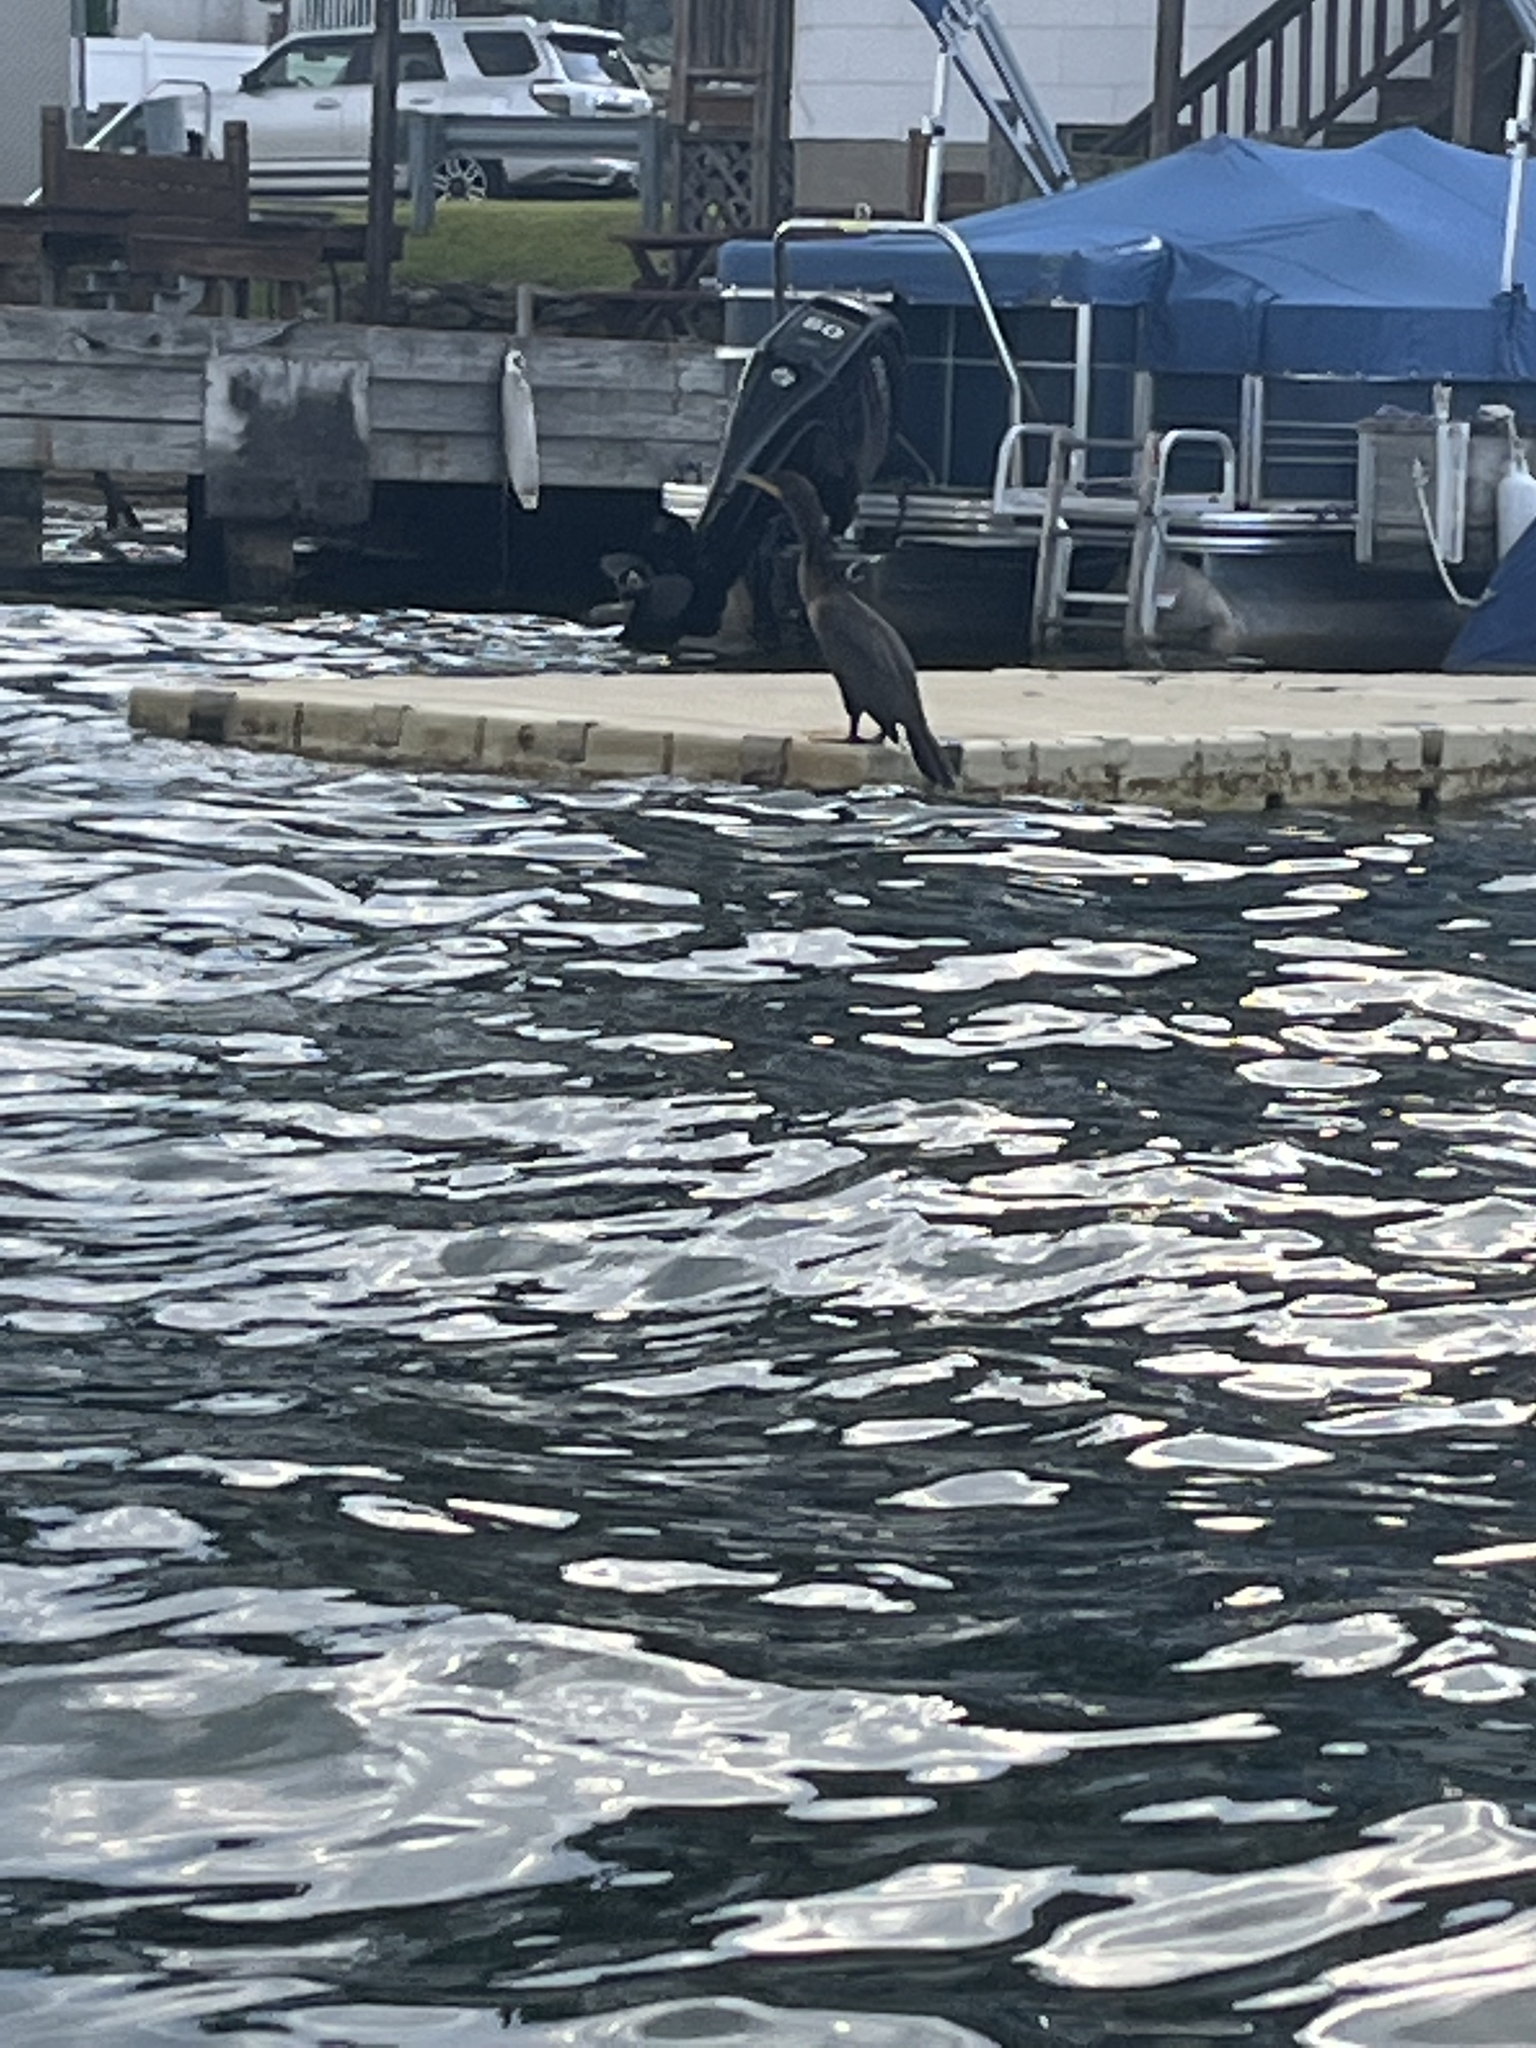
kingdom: Animalia
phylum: Chordata
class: Aves
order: Suliformes
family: Phalacrocoracidae
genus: Phalacrocorax
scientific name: Phalacrocorax auritus
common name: Double-crested cormorant
